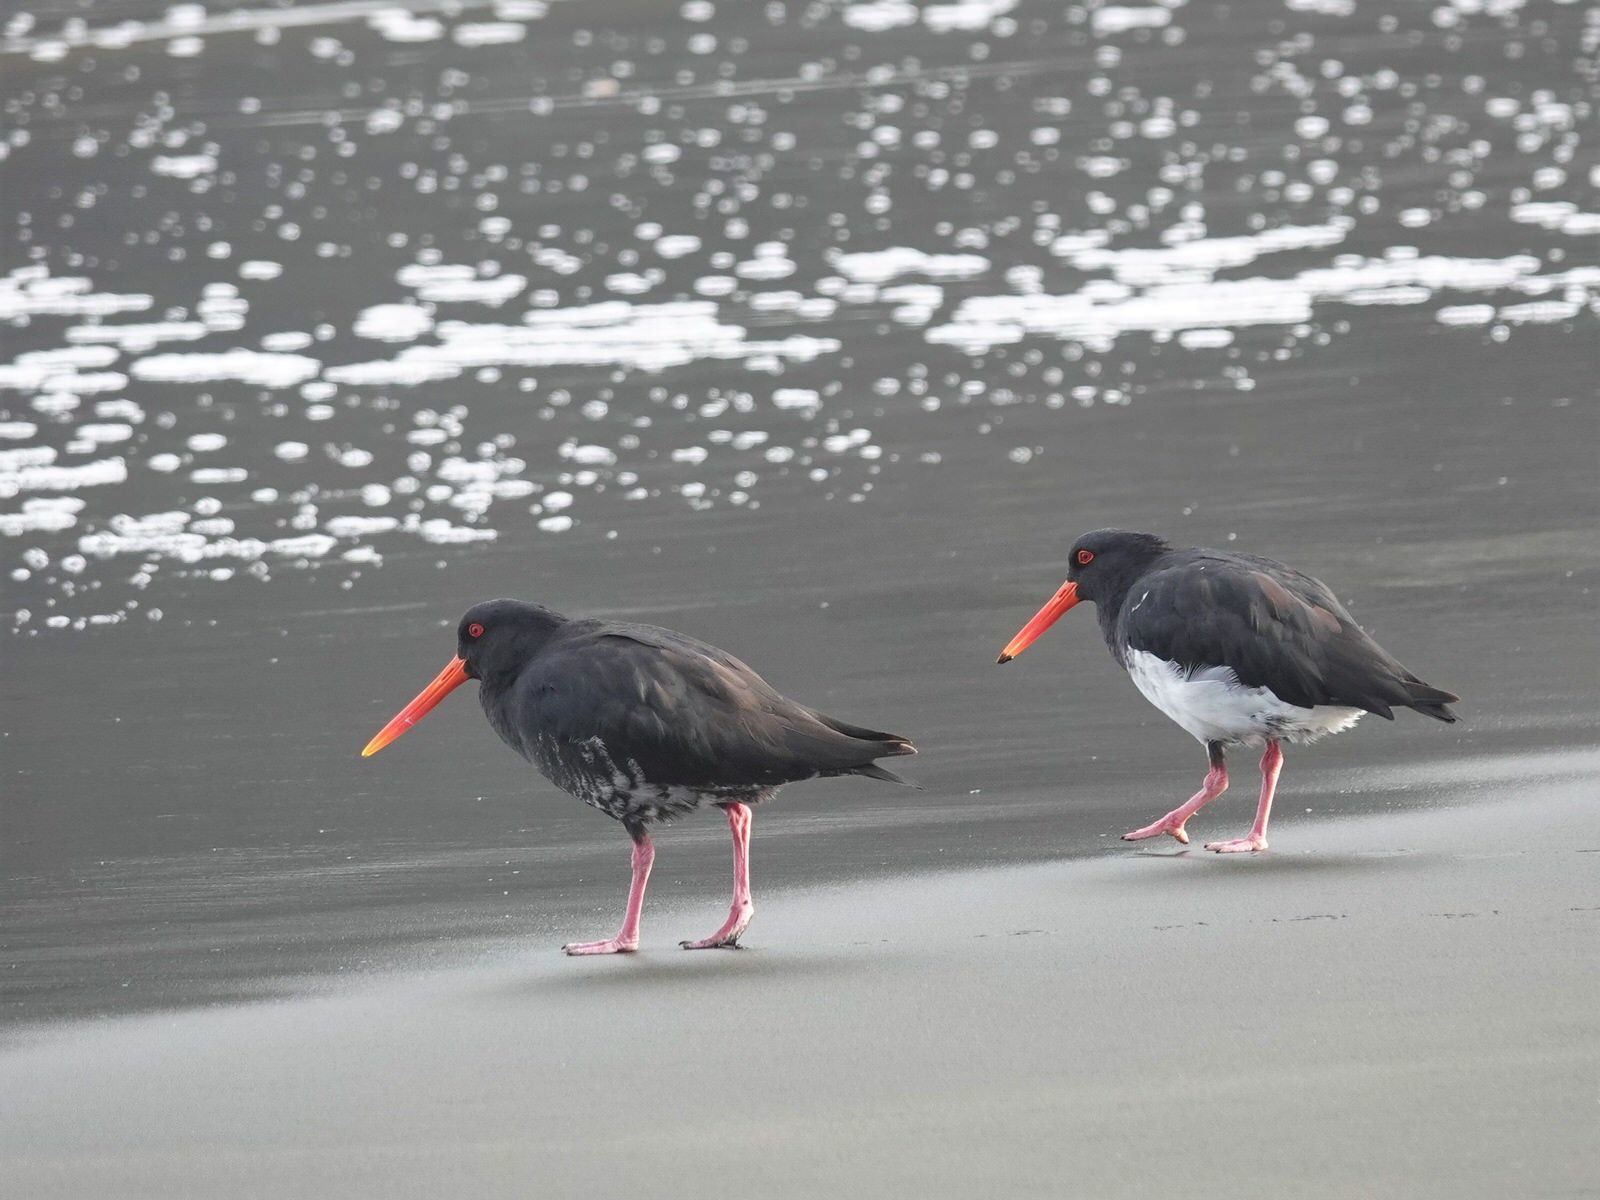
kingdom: Animalia
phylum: Chordata
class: Aves
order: Charadriiformes
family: Haematopodidae
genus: Haematopus
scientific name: Haematopus unicolor
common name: Variable oystercatcher
